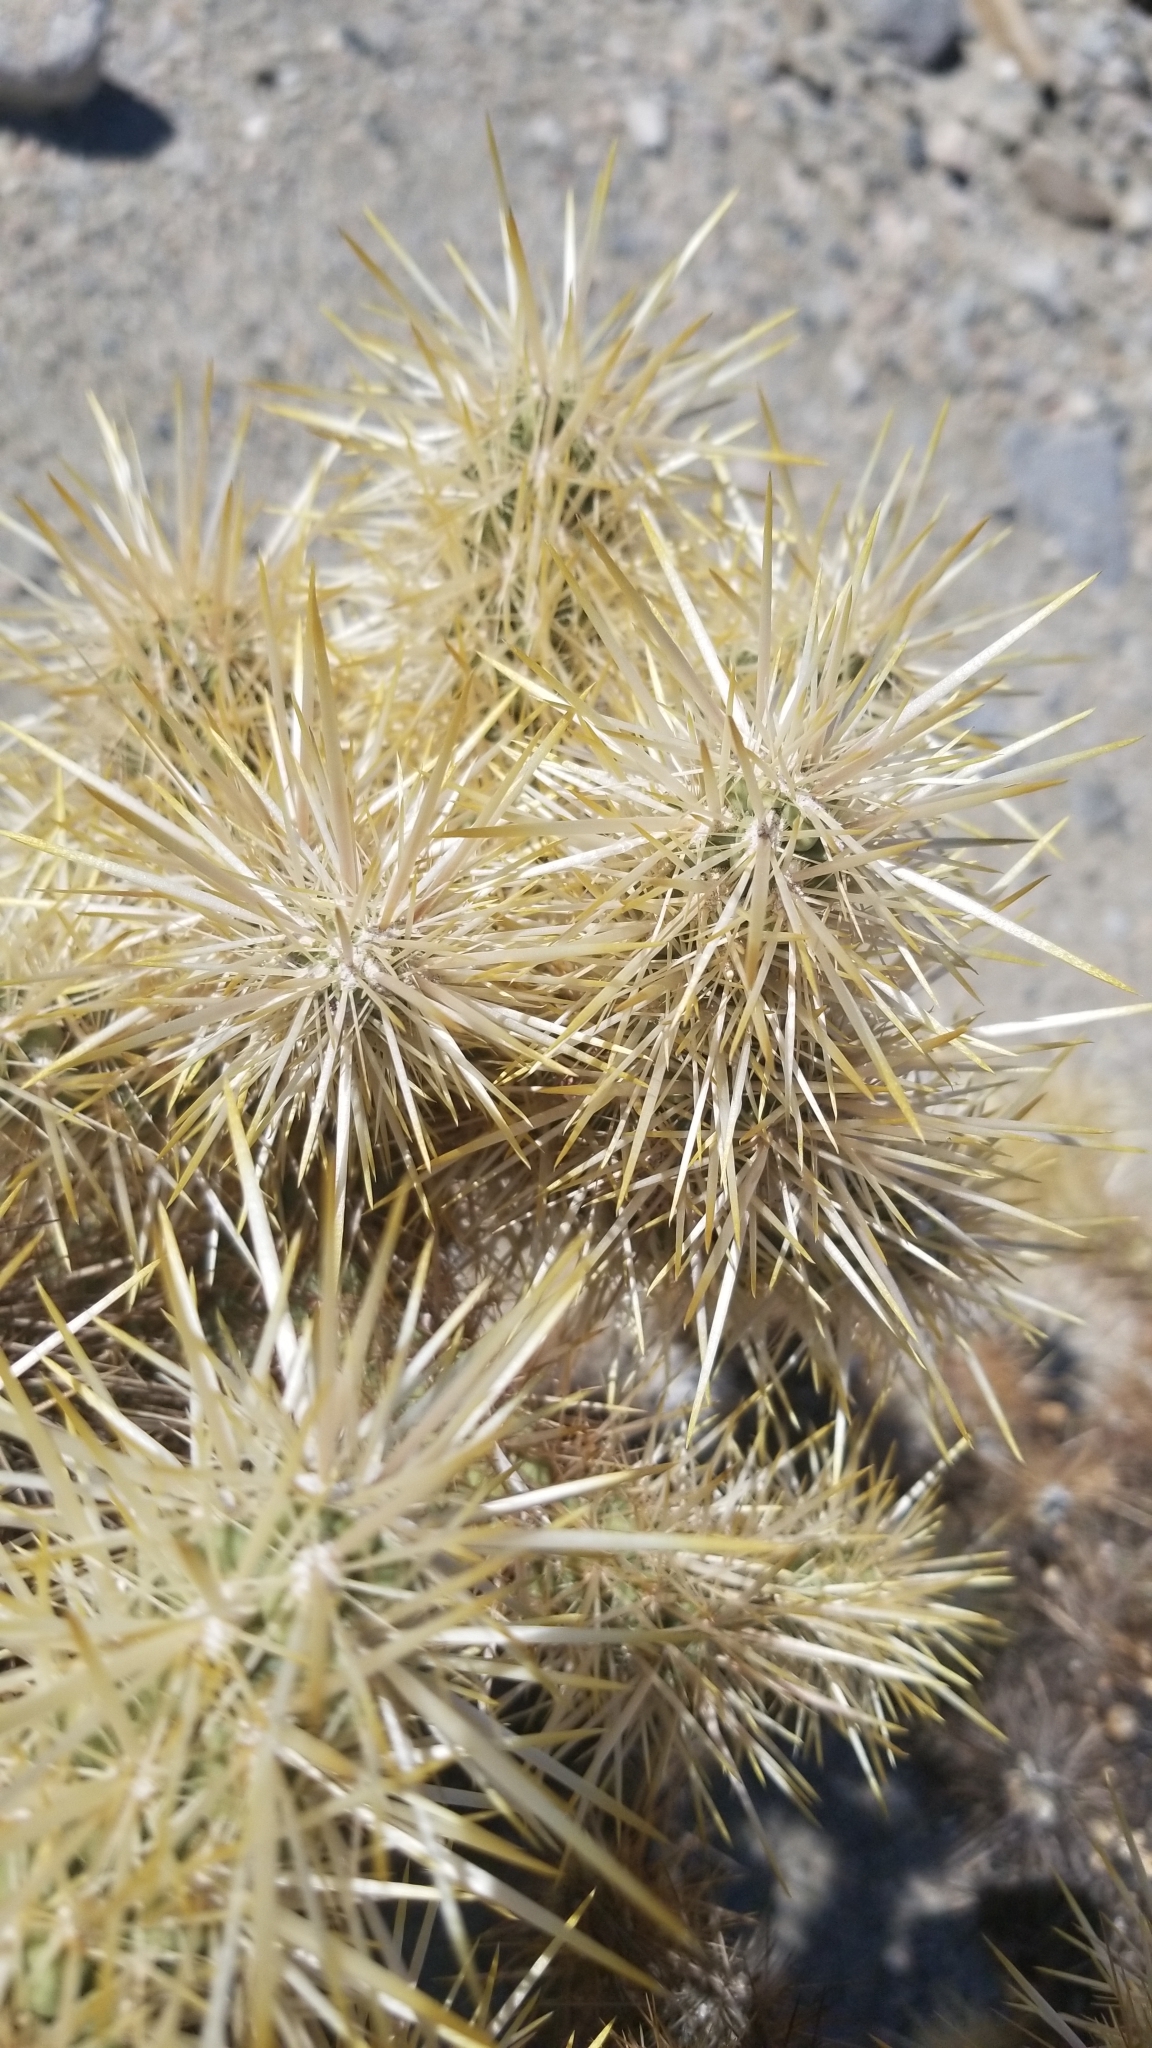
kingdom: Plantae
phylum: Tracheophyta
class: Magnoliopsida
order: Caryophyllales
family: Cactaceae
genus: Cylindropuntia
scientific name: Cylindropuntia echinocarpa
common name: Ground cholla
